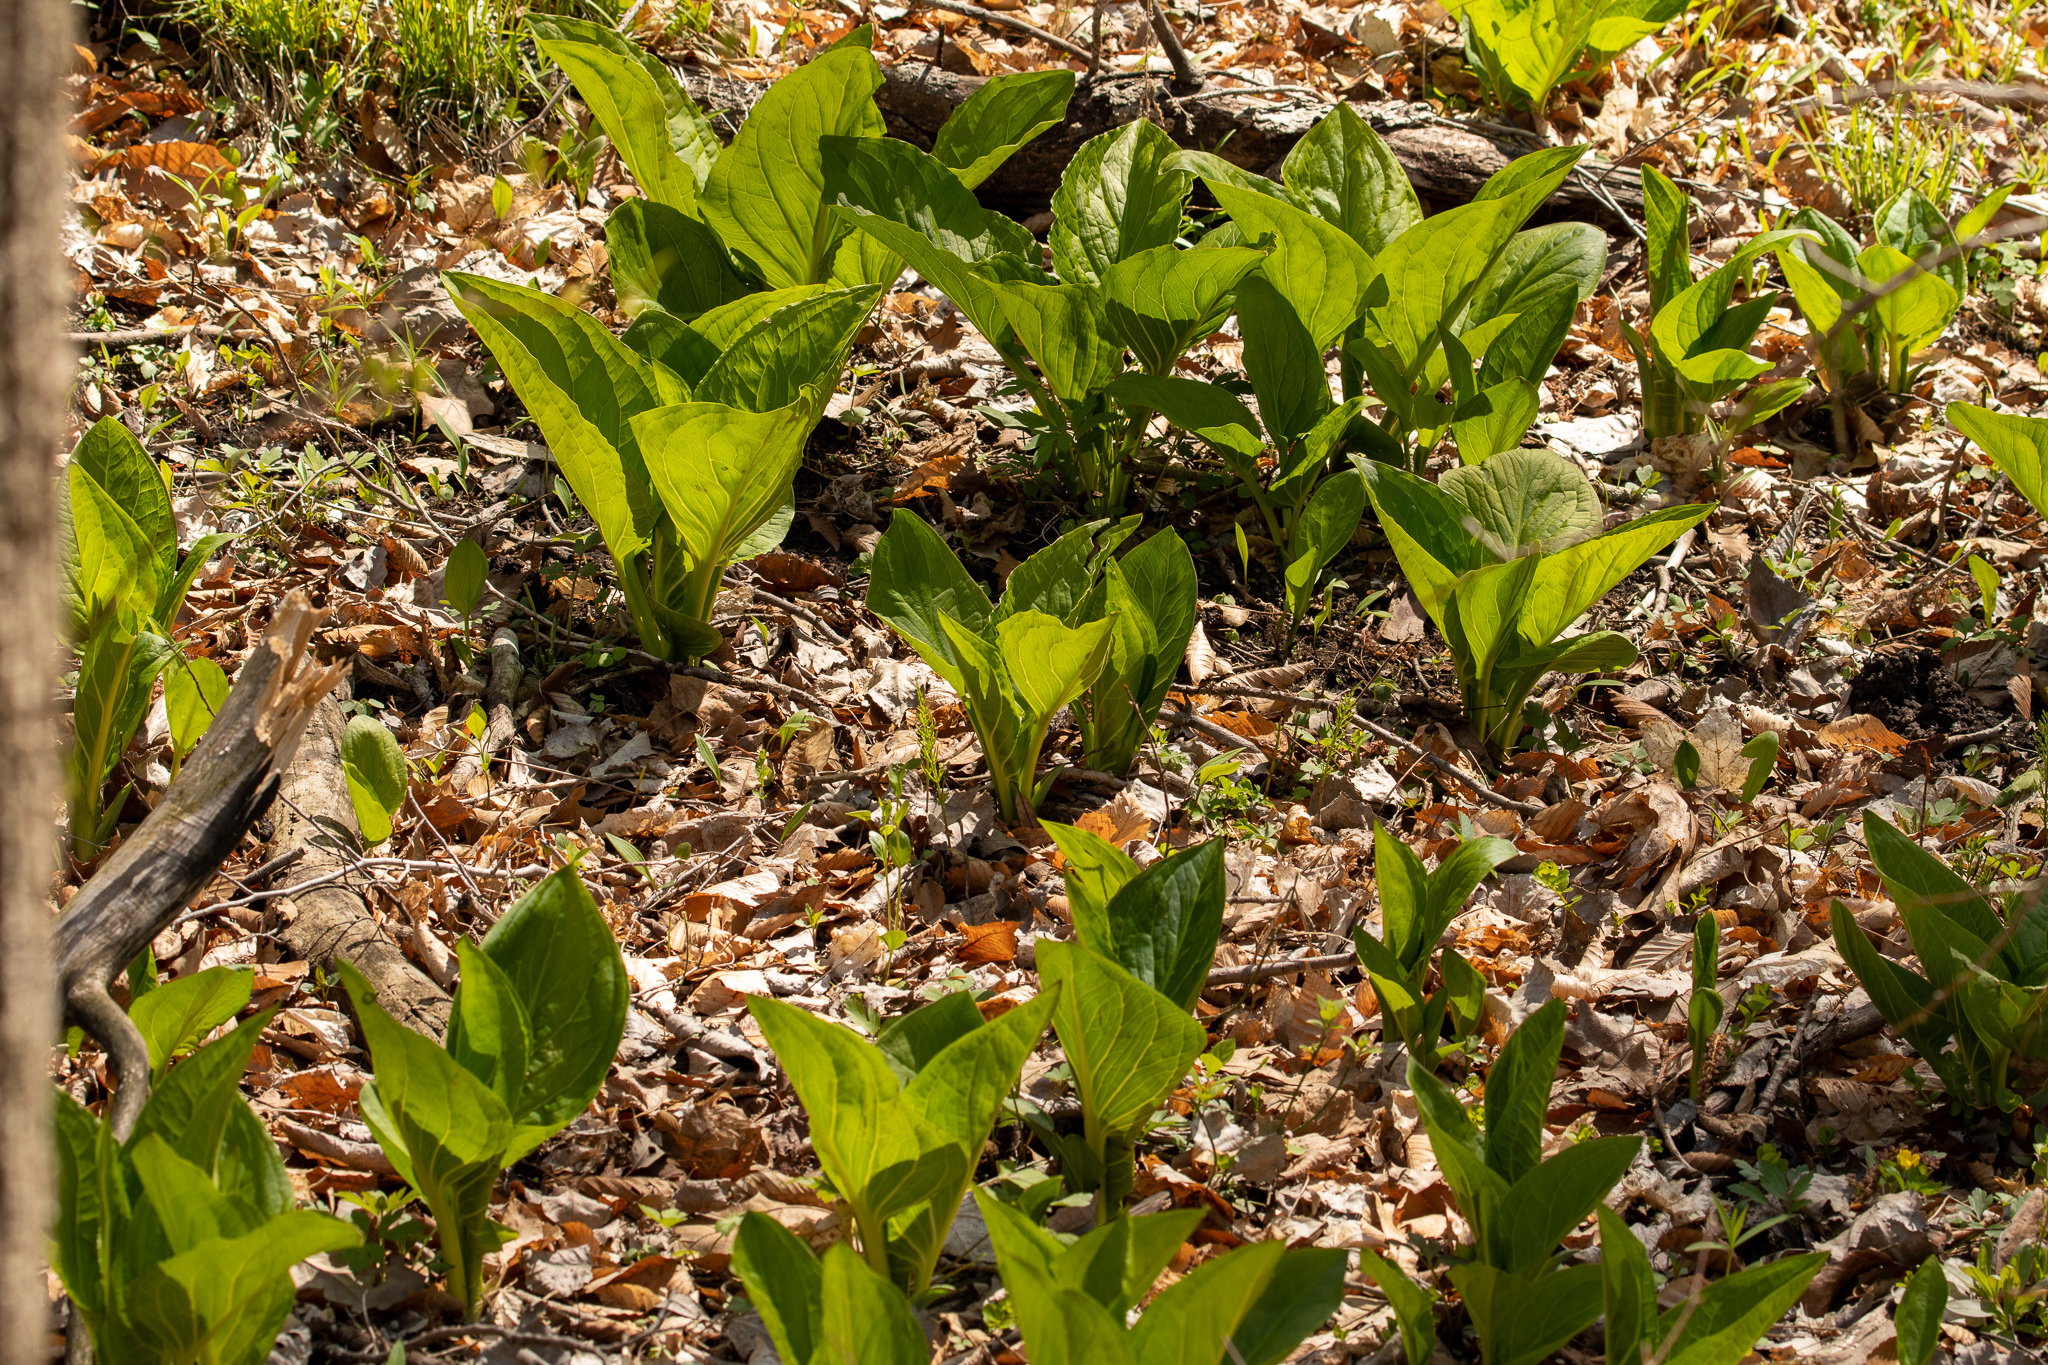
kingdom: Plantae
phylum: Tracheophyta
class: Liliopsida
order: Alismatales
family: Araceae
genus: Symplocarpus
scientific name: Symplocarpus foetidus
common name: Eastern skunk cabbage
